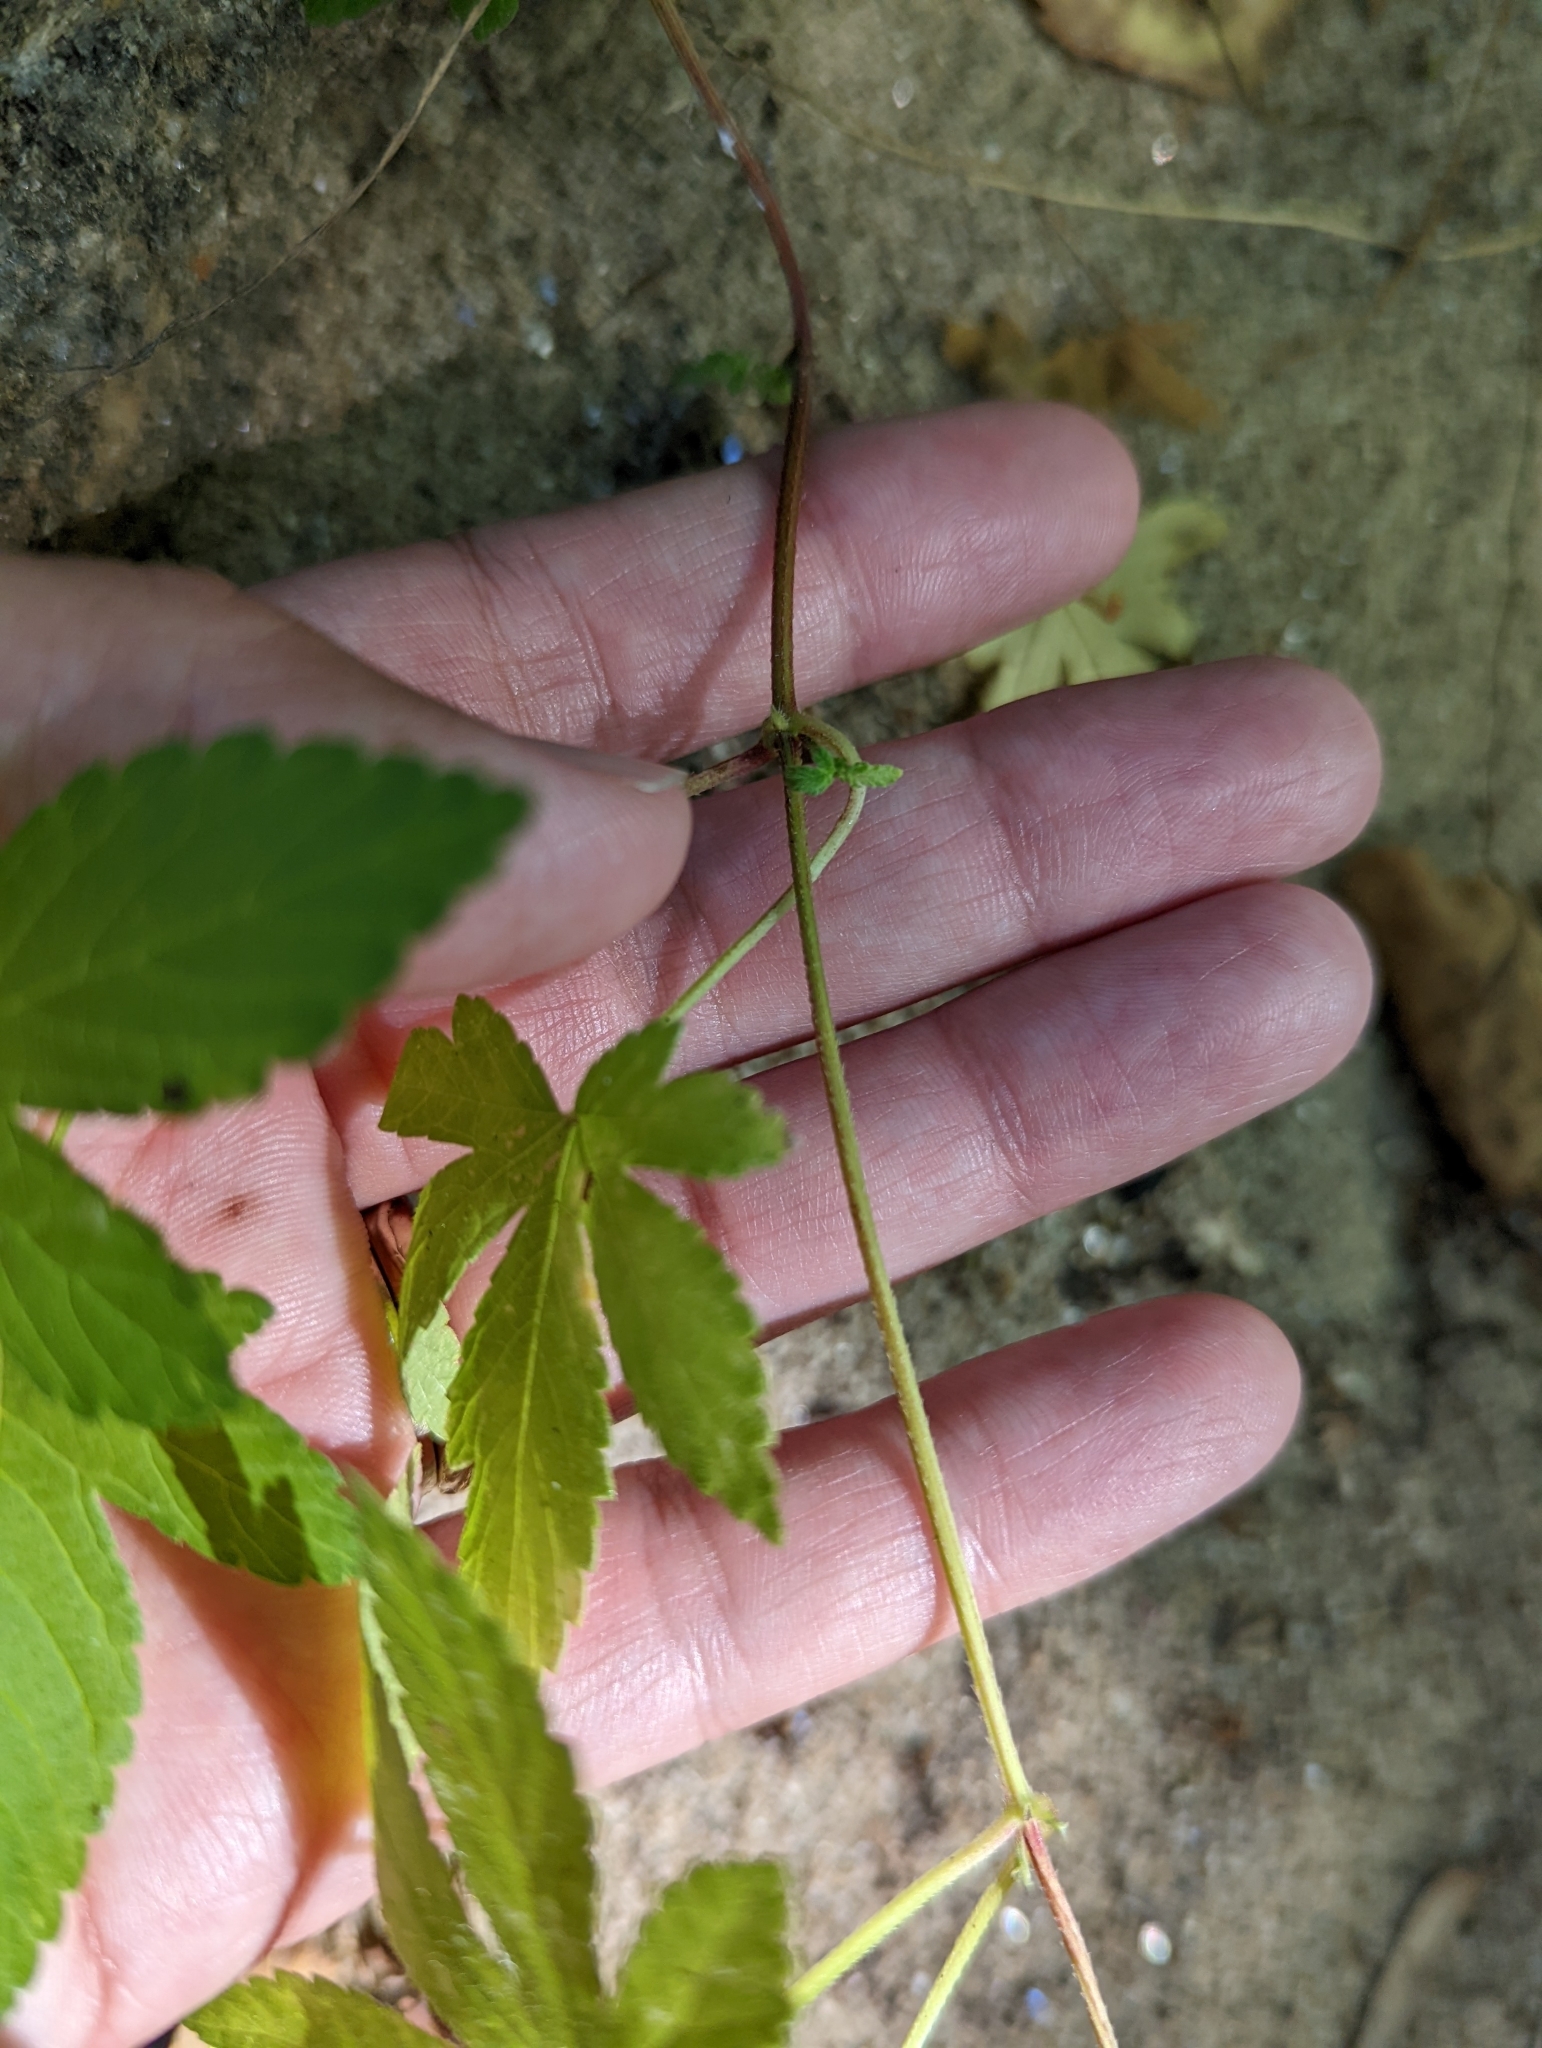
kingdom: Plantae
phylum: Tracheophyta
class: Magnoliopsida
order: Rosales
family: Cannabaceae
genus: Humulus
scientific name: Humulus scandens
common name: Japanese hop
